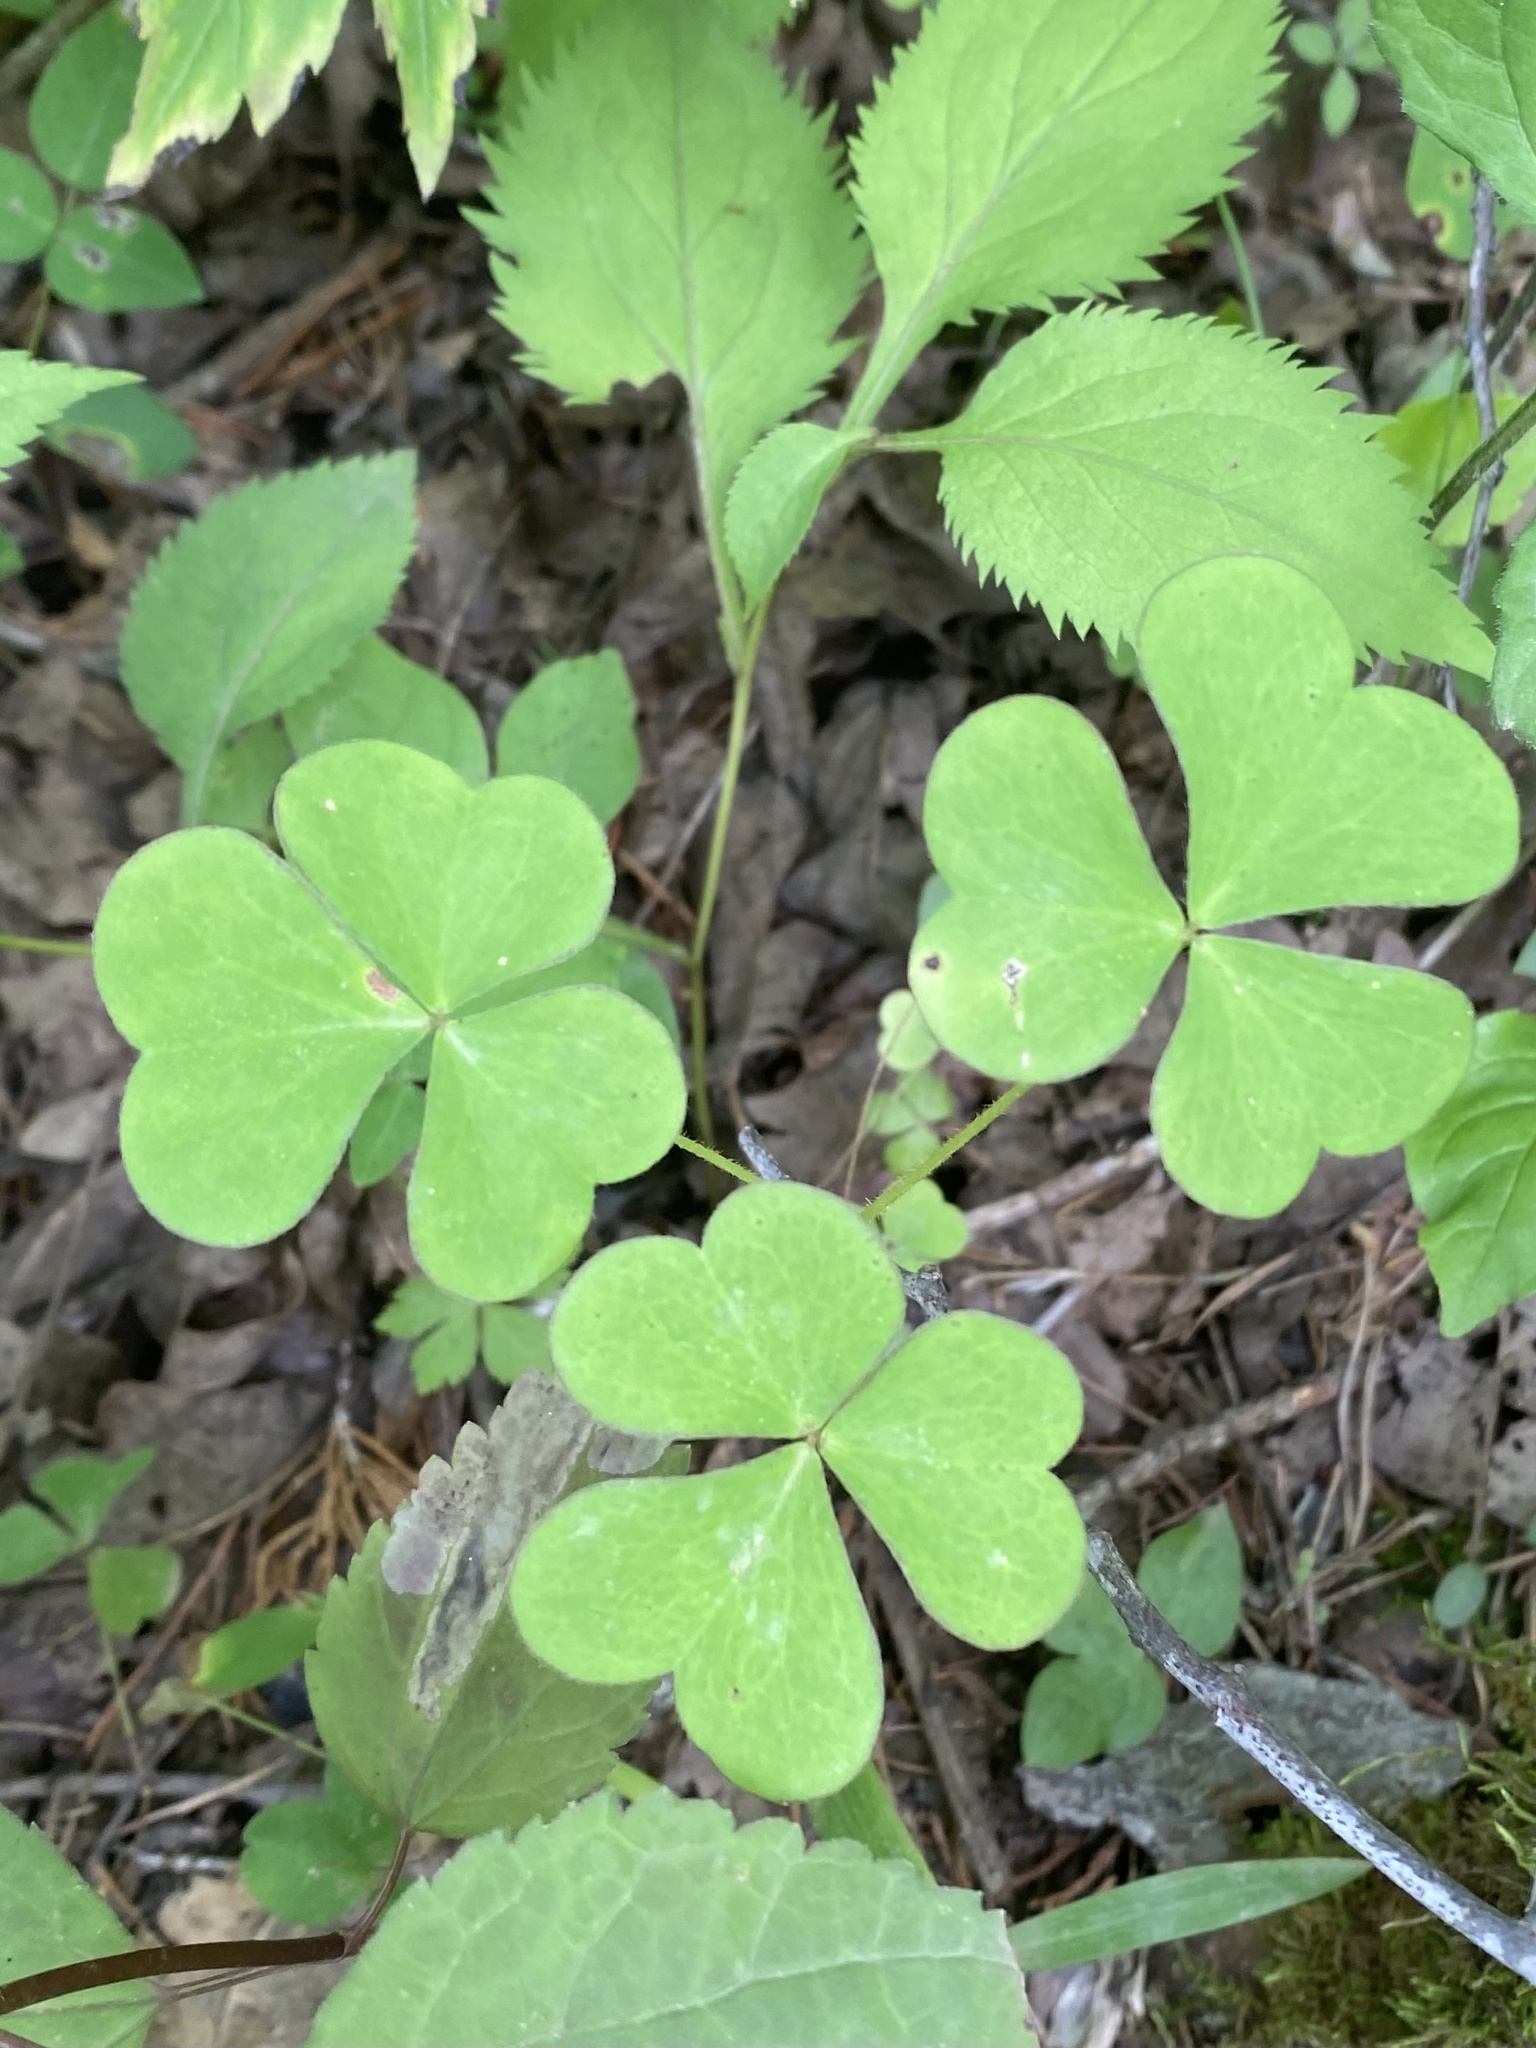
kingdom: Plantae
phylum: Tracheophyta
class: Magnoliopsida
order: Oxalidales
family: Oxalidaceae
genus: Oxalis
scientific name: Oxalis grandis
